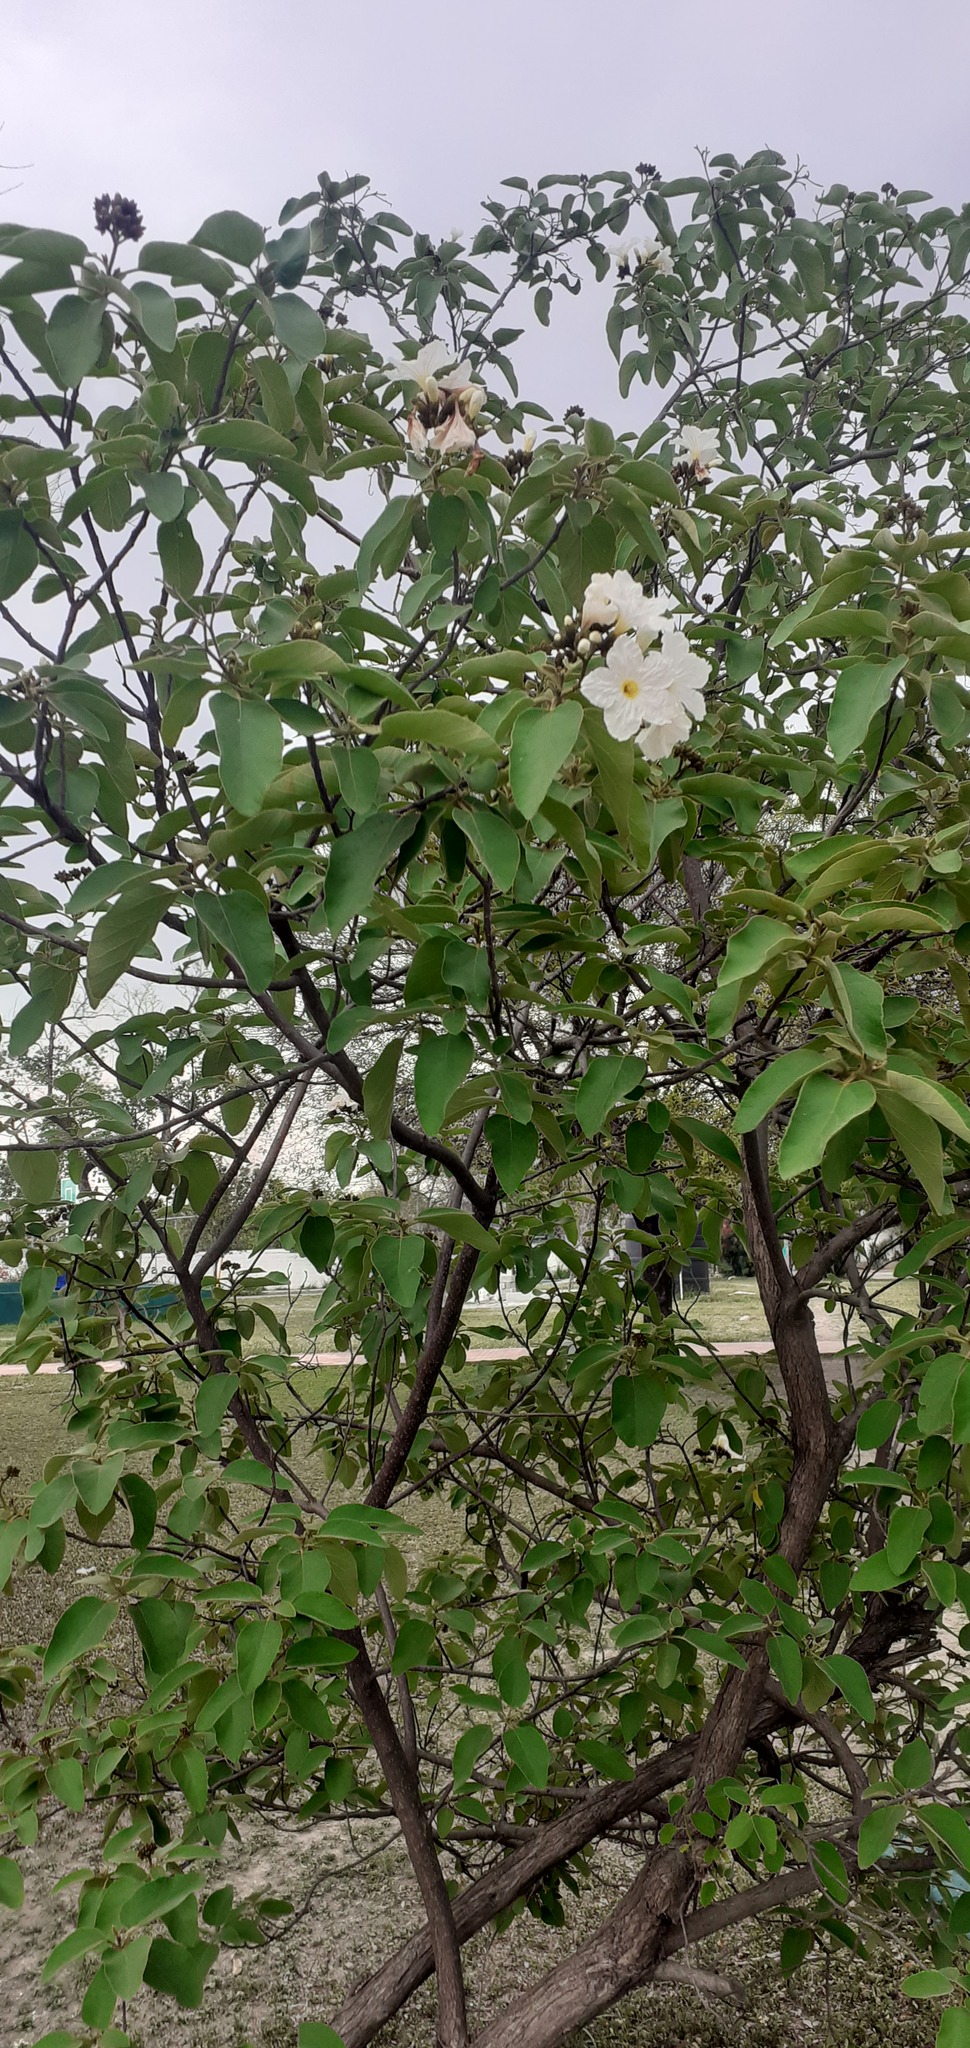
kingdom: Plantae
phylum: Tracheophyta
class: Magnoliopsida
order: Boraginales
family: Cordiaceae
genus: Cordia
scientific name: Cordia boissieri
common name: Mexican-olive
